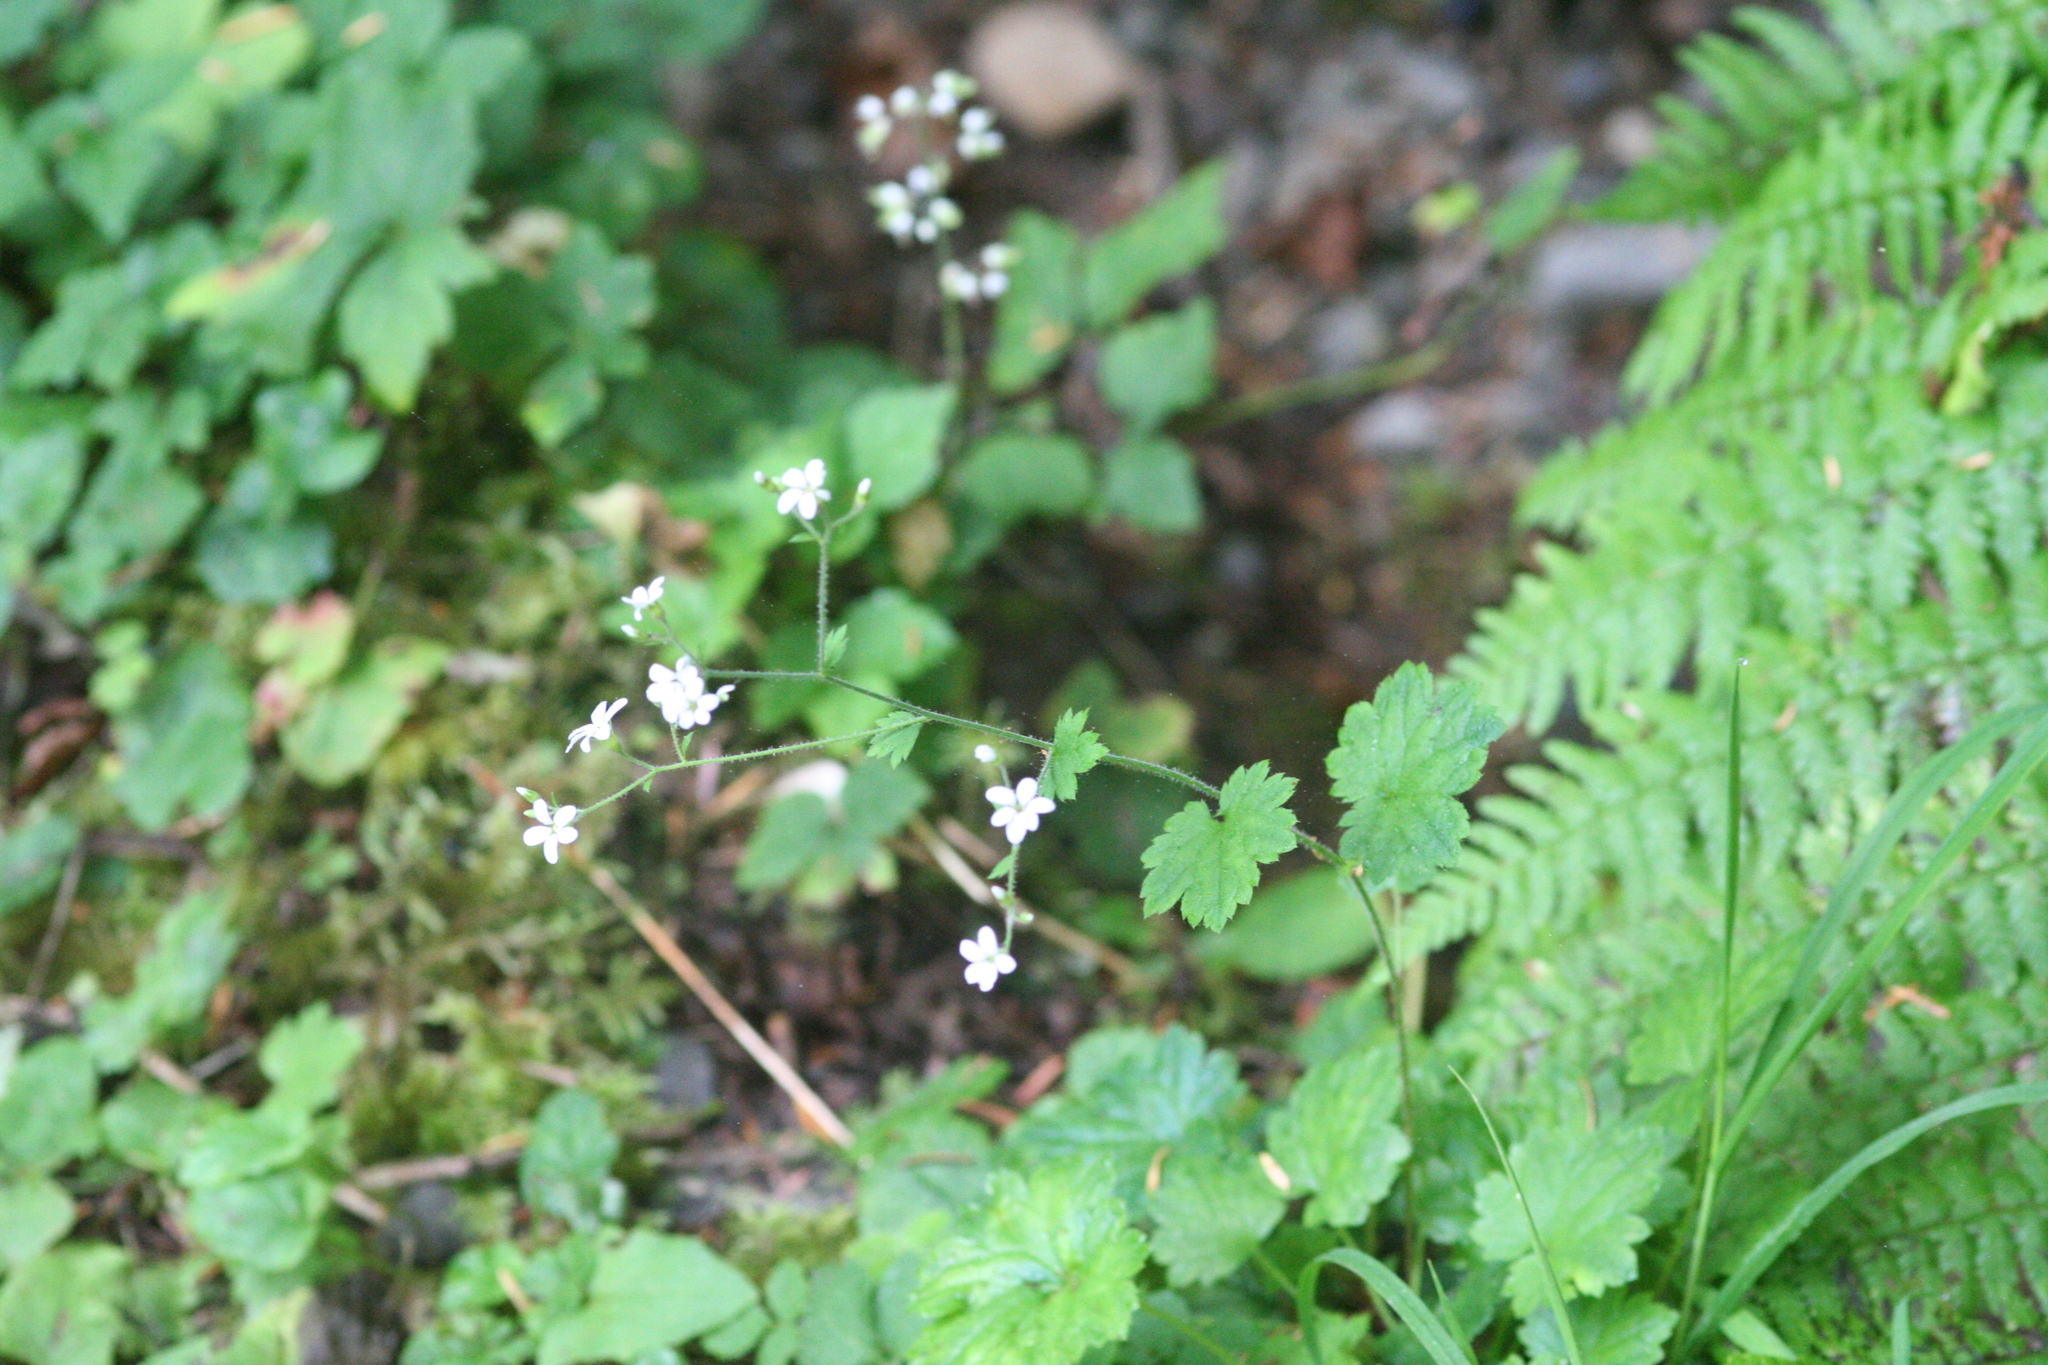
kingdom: Plantae
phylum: Tracheophyta
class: Magnoliopsida
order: Saxifragales
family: Saxifragaceae
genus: Boykinia
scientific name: Boykinia occidentalis
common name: Coast boykinia
